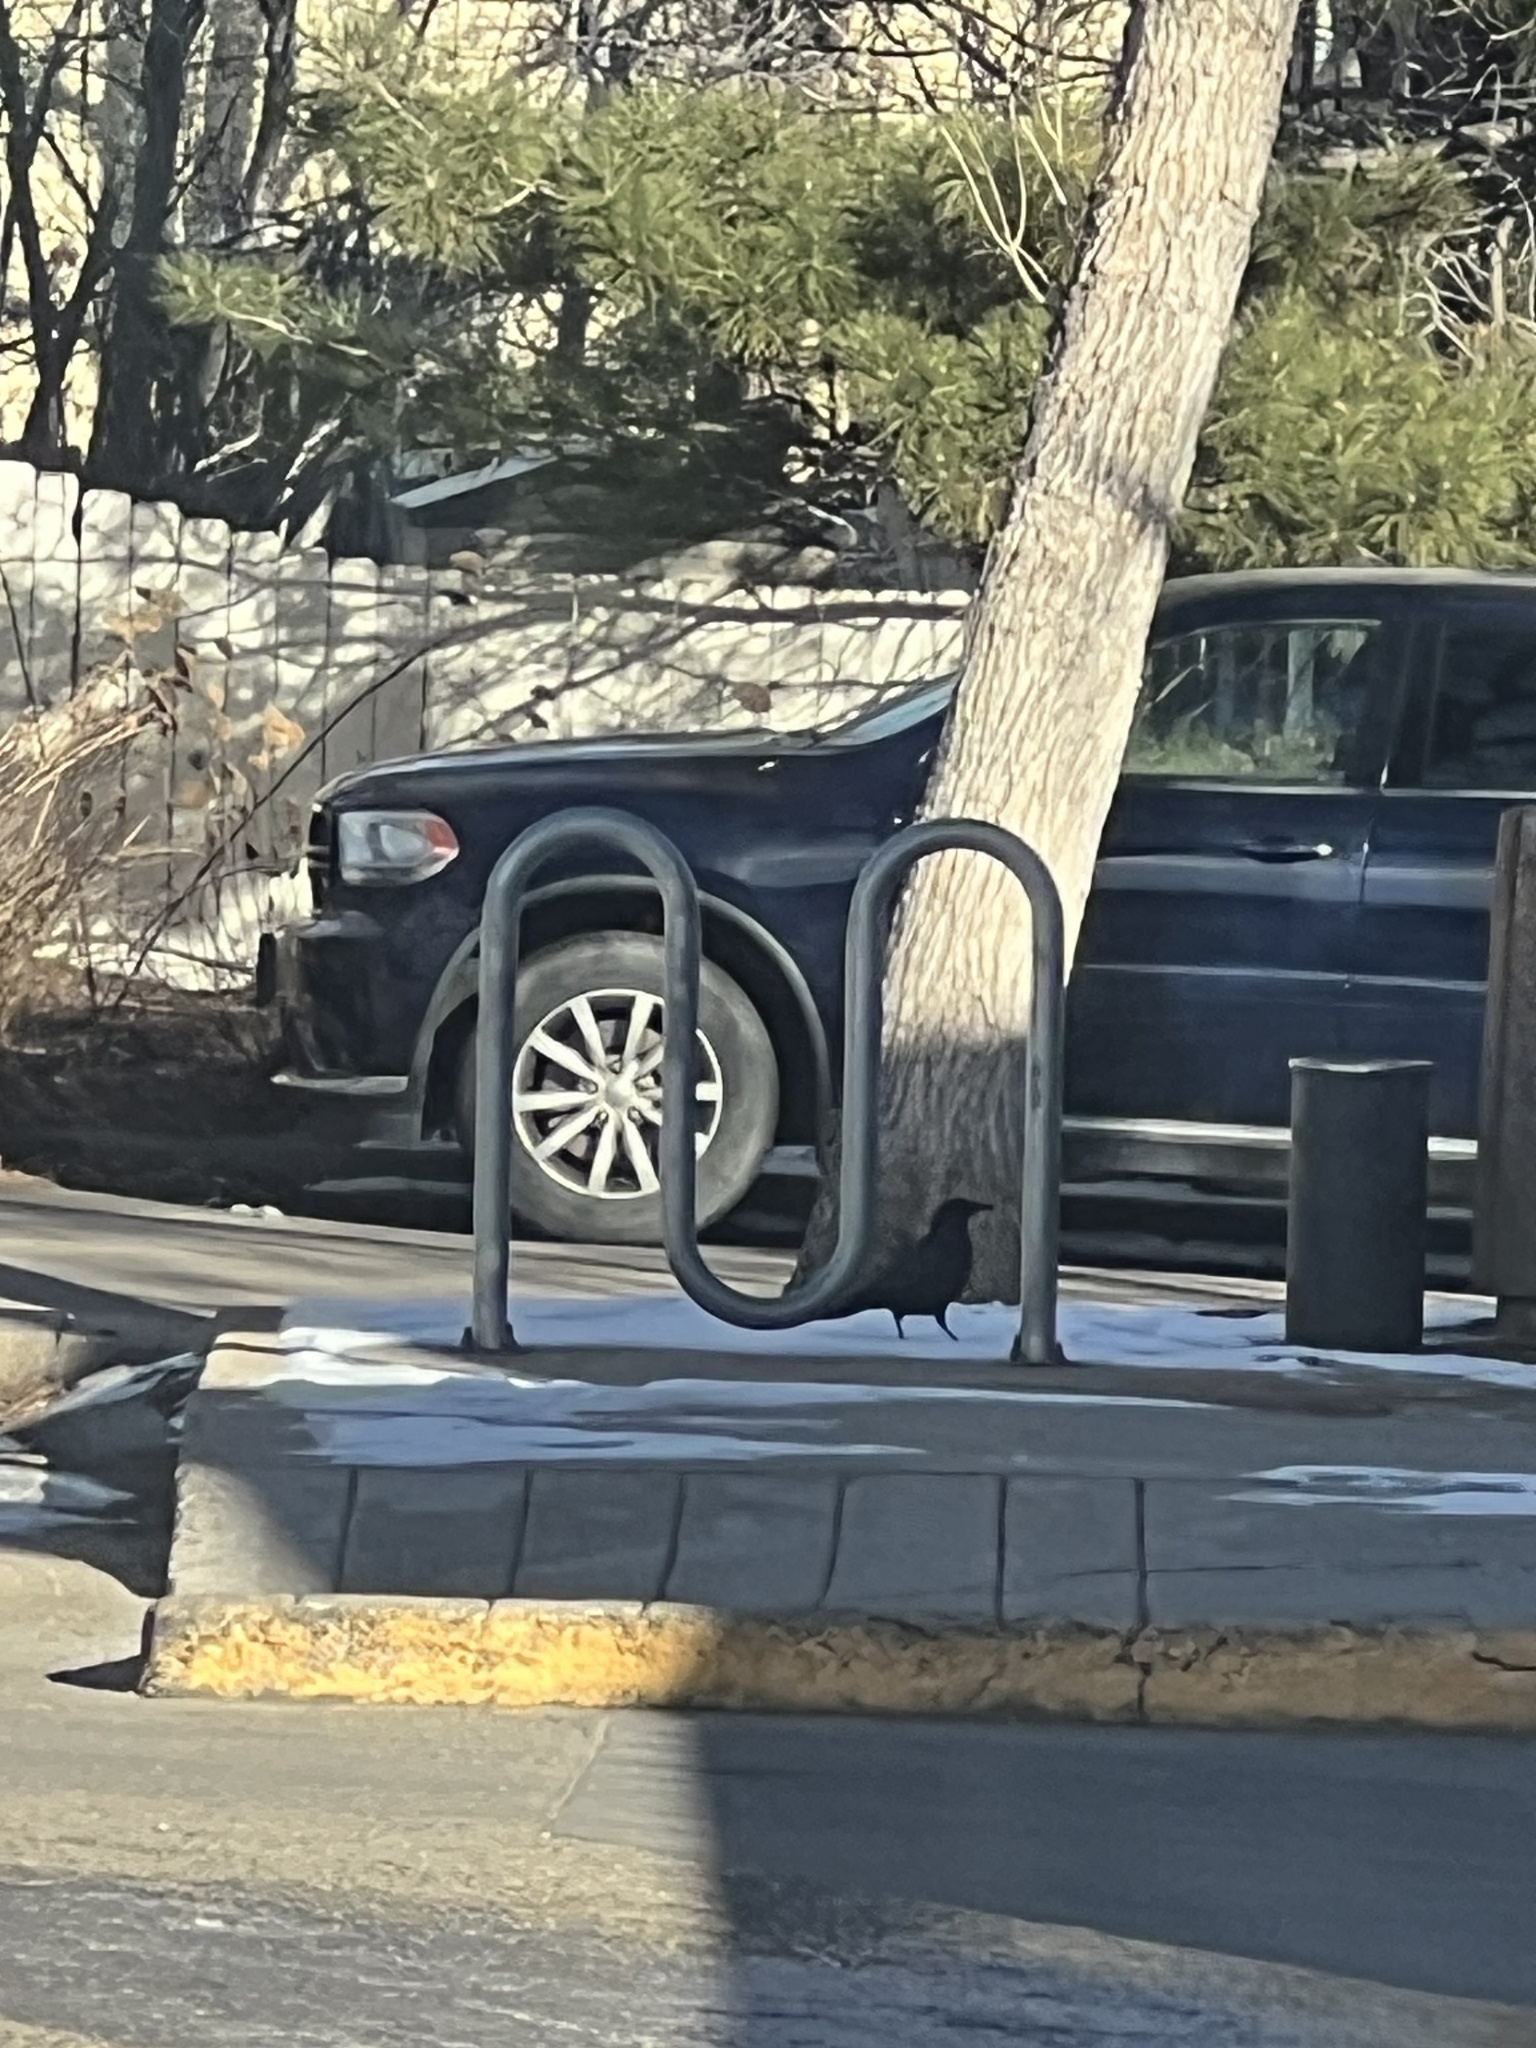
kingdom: Animalia
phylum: Chordata
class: Aves
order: Passeriformes
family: Corvidae
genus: Corvus
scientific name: Corvus brachyrhynchos
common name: American crow
